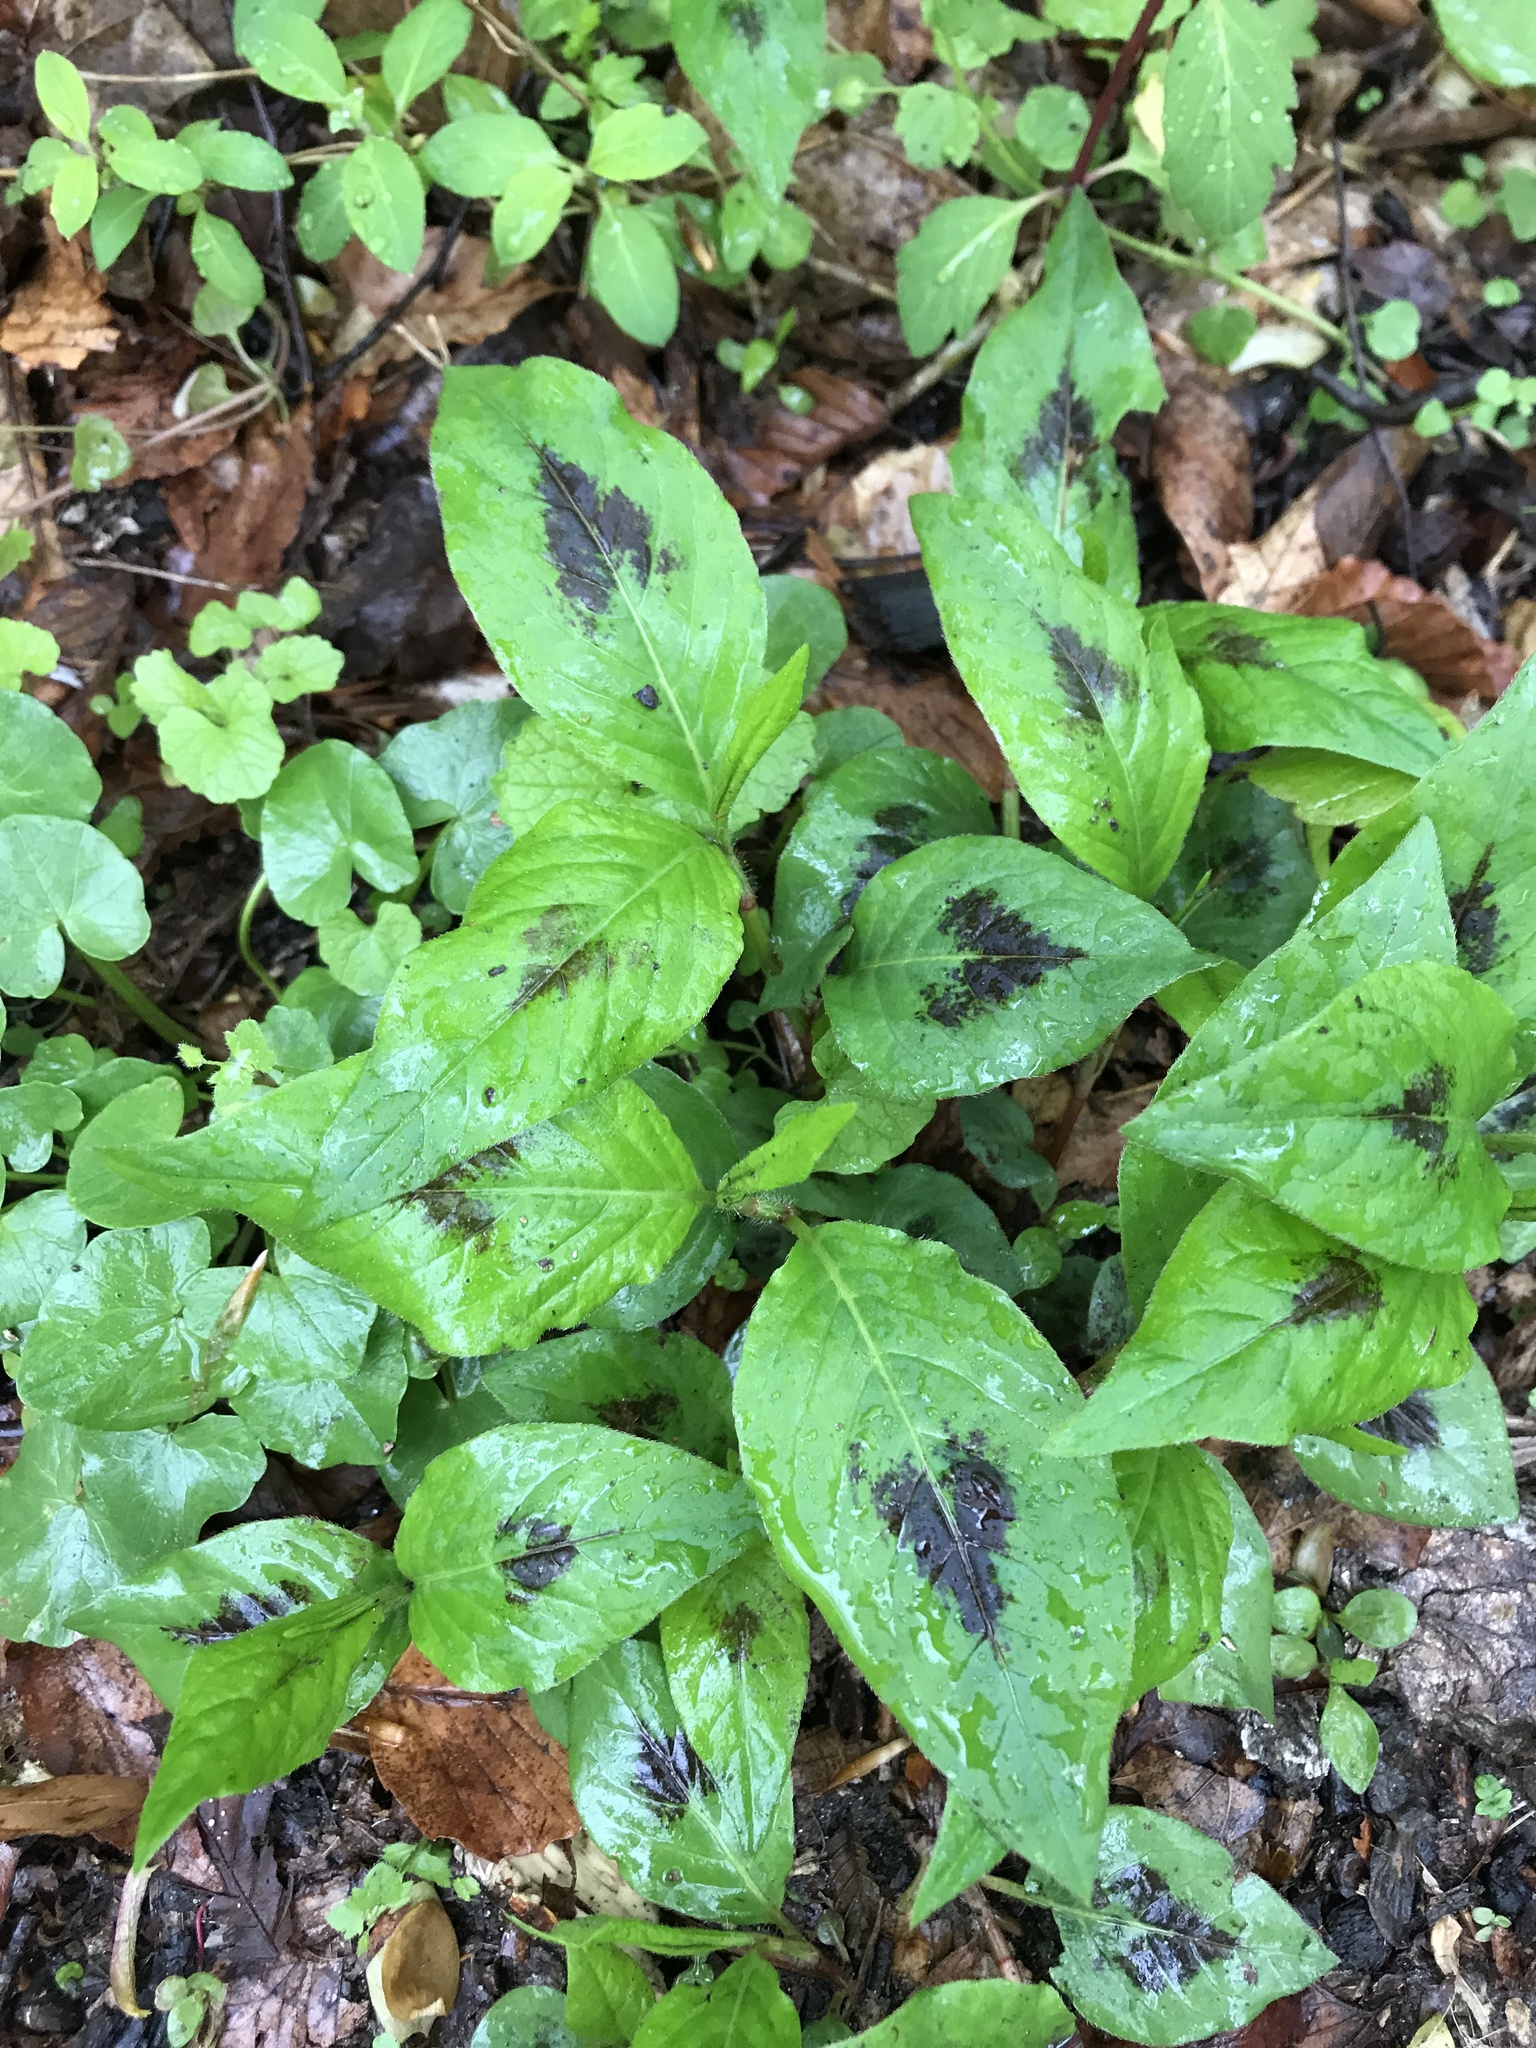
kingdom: Plantae
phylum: Tracheophyta
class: Magnoliopsida
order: Caryophyllales
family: Polygonaceae
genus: Persicaria
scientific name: Persicaria virginiana
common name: Jumpseed
